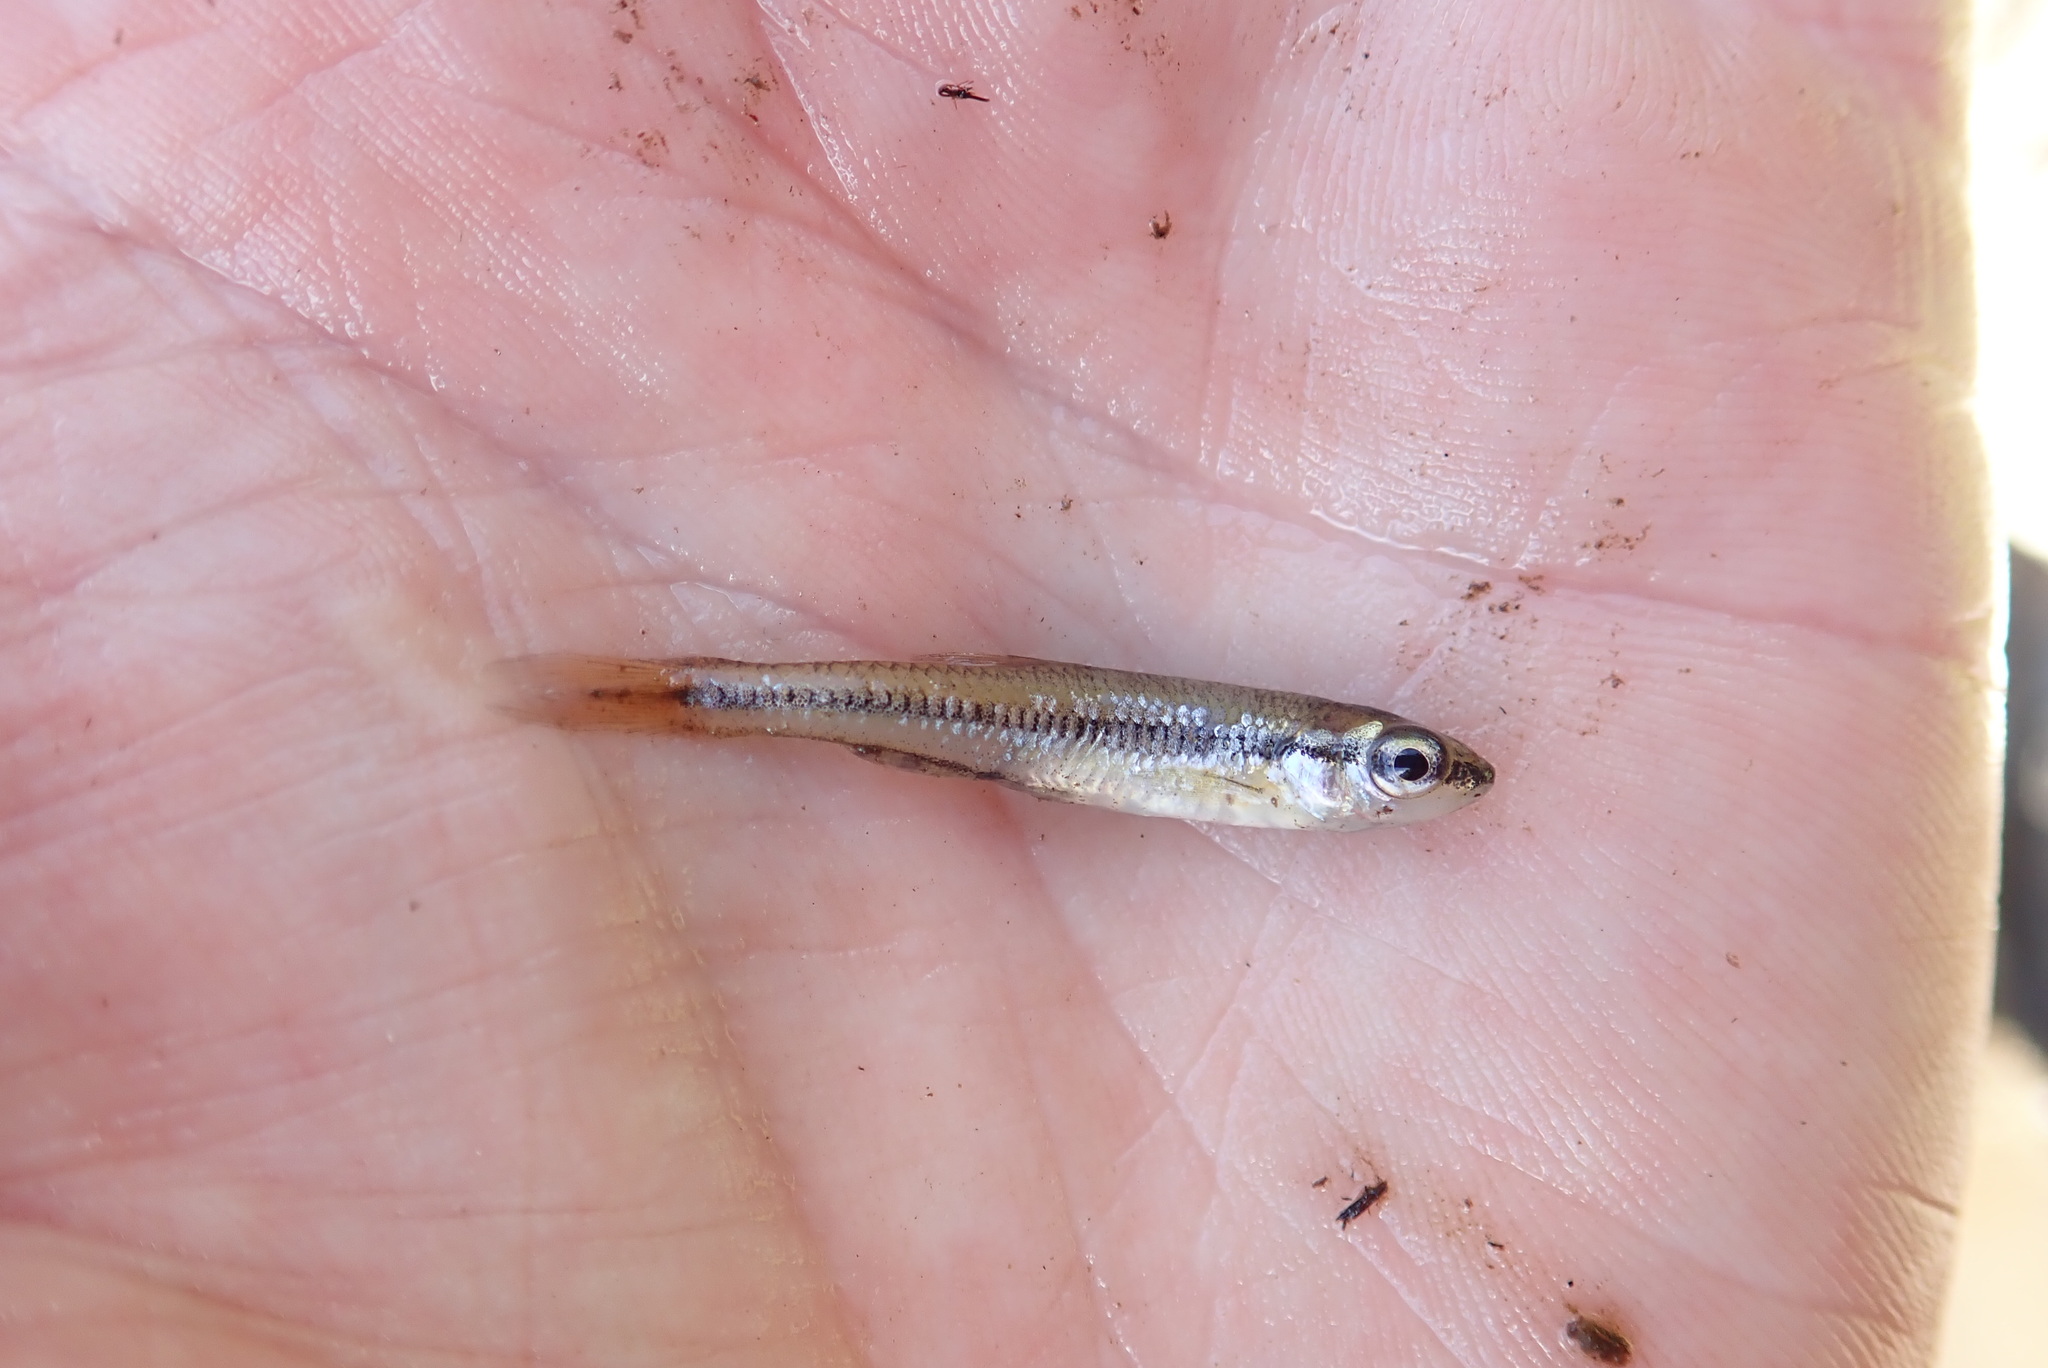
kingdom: Animalia
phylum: Chordata
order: Cypriniformes
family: Cyprinidae
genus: Notropis
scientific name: Notropis heterolepis
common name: Blacknose shiner
